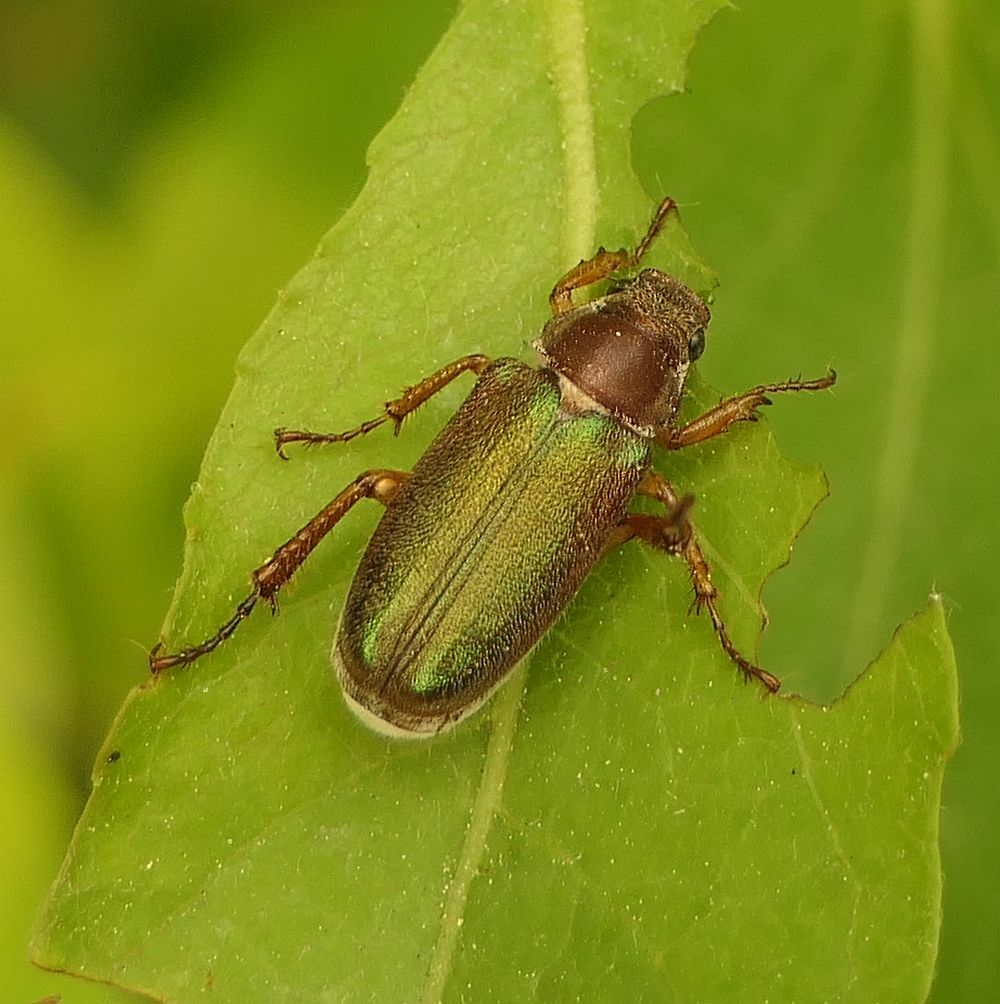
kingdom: Animalia
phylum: Arthropoda
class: Insecta
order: Coleoptera
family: Scarabaeidae
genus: Dichelonyx
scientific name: Dichelonyx linearis
